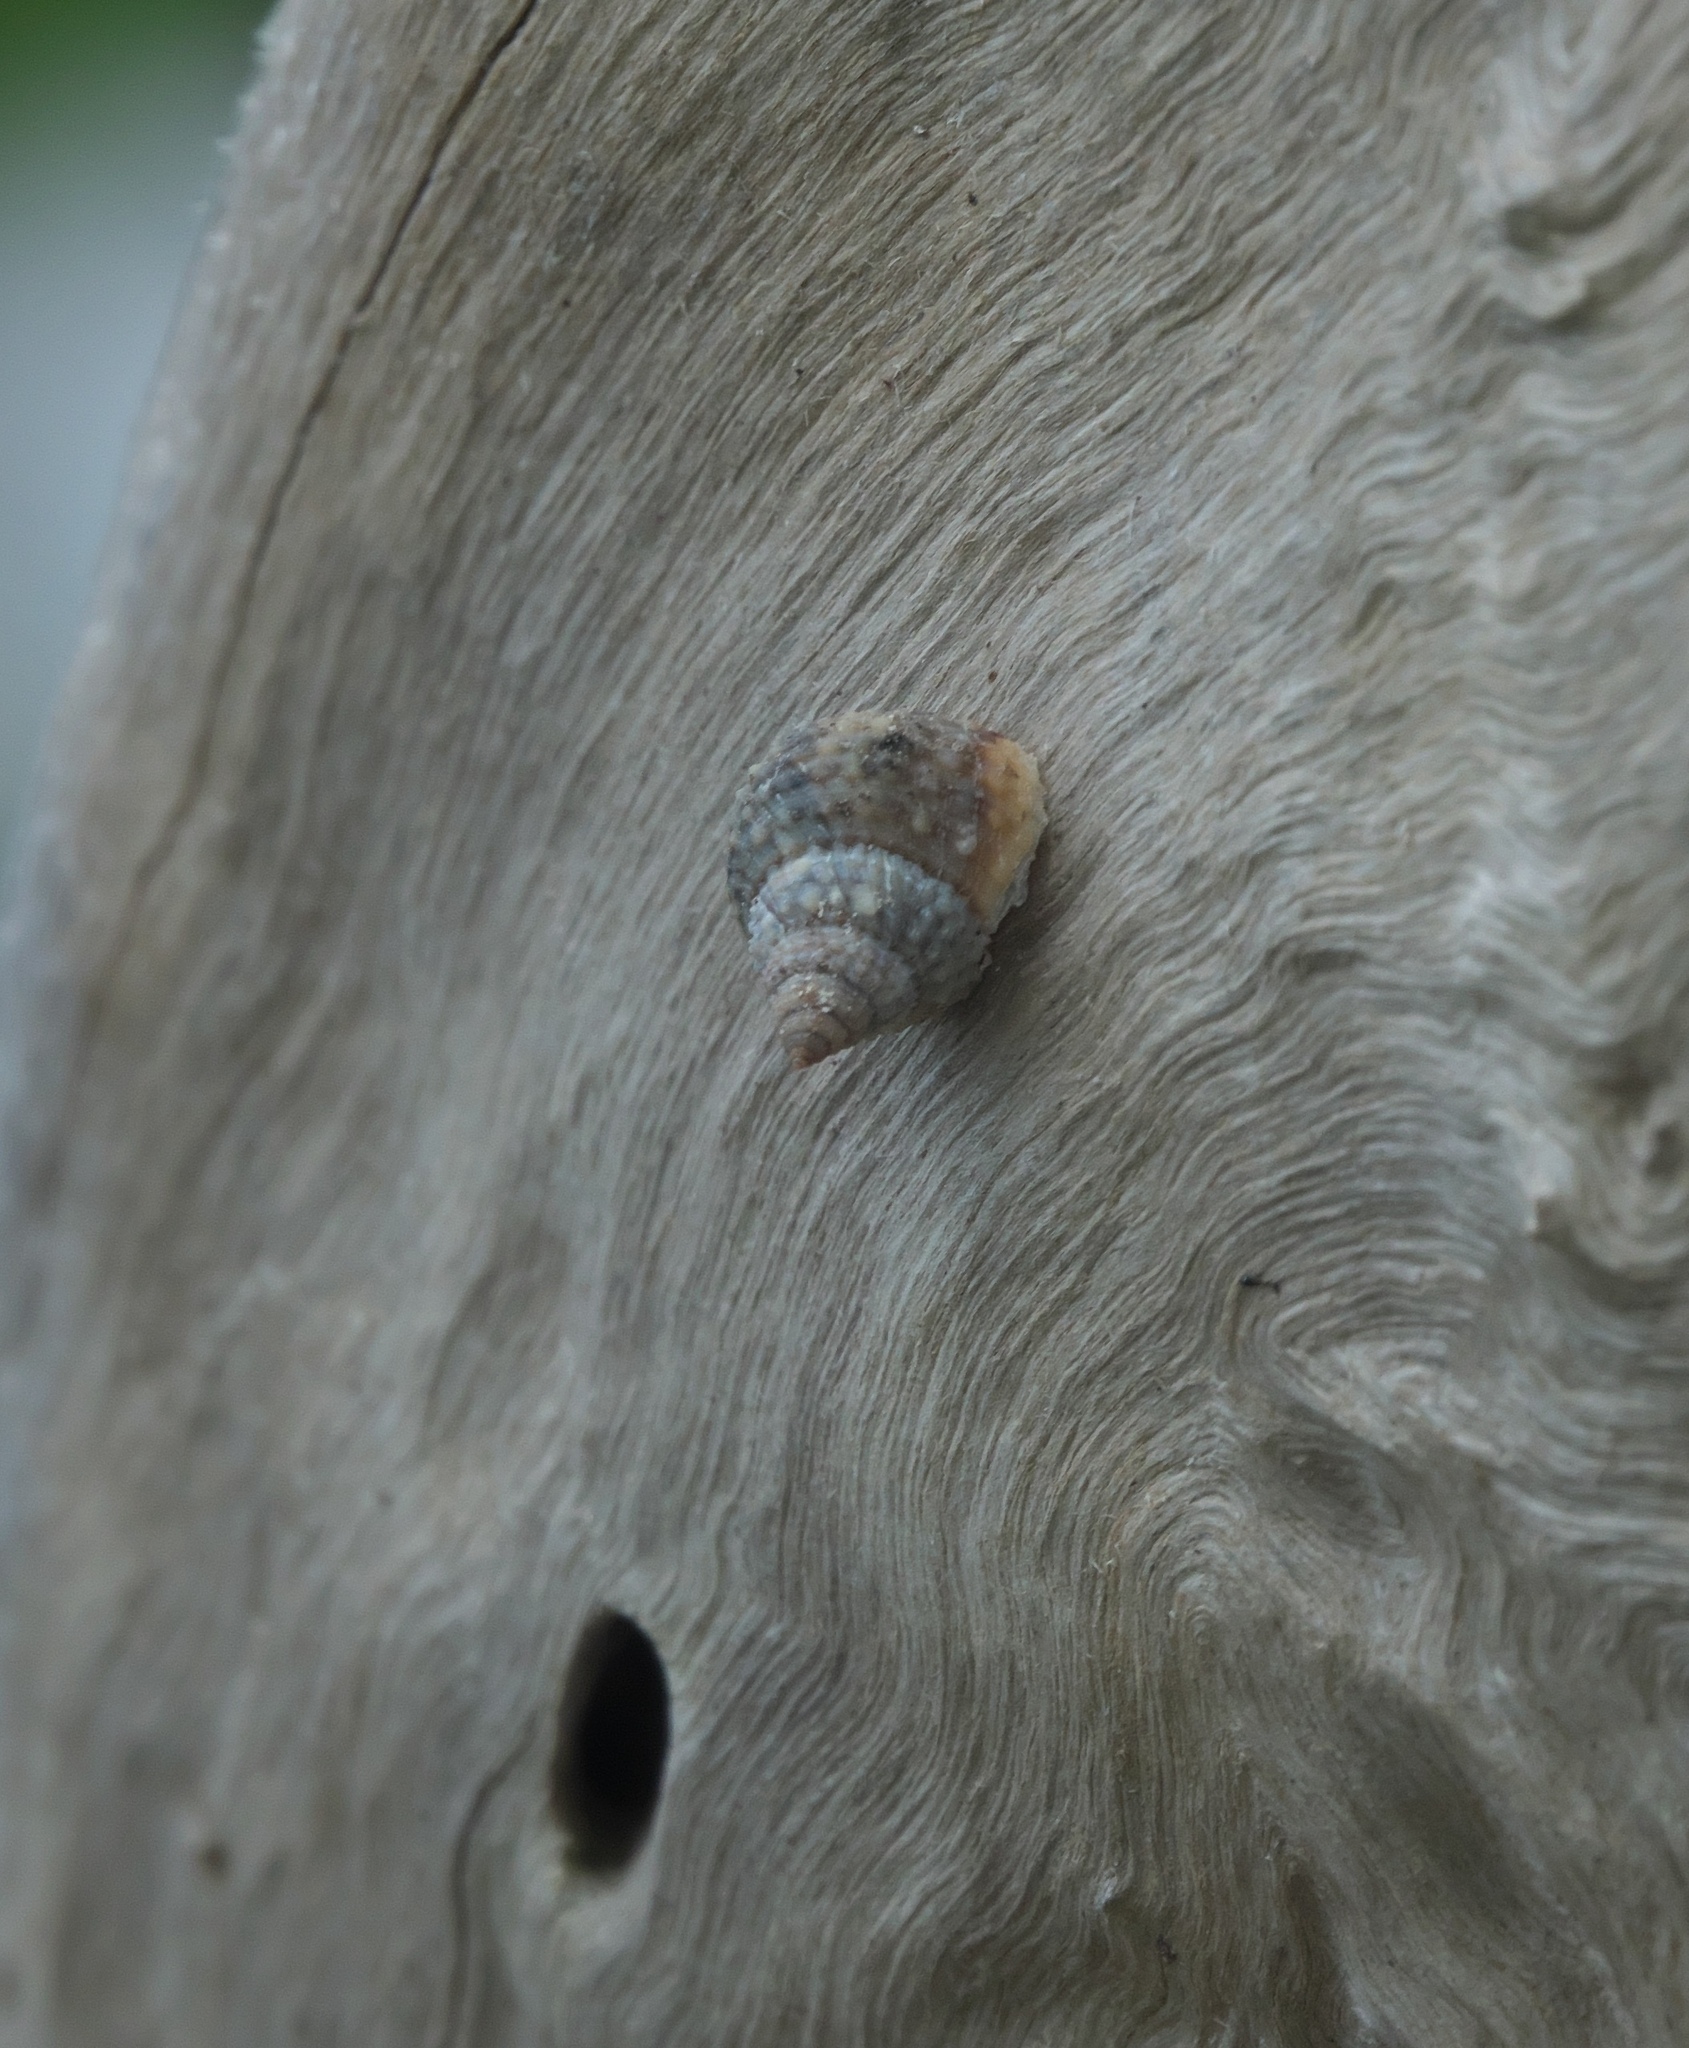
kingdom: Animalia
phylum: Mollusca
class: Gastropoda
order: Littorinimorpha
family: Littorinidae
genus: Cenchritis
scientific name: Cenchritis muricatus
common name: Beaded periwinkle
